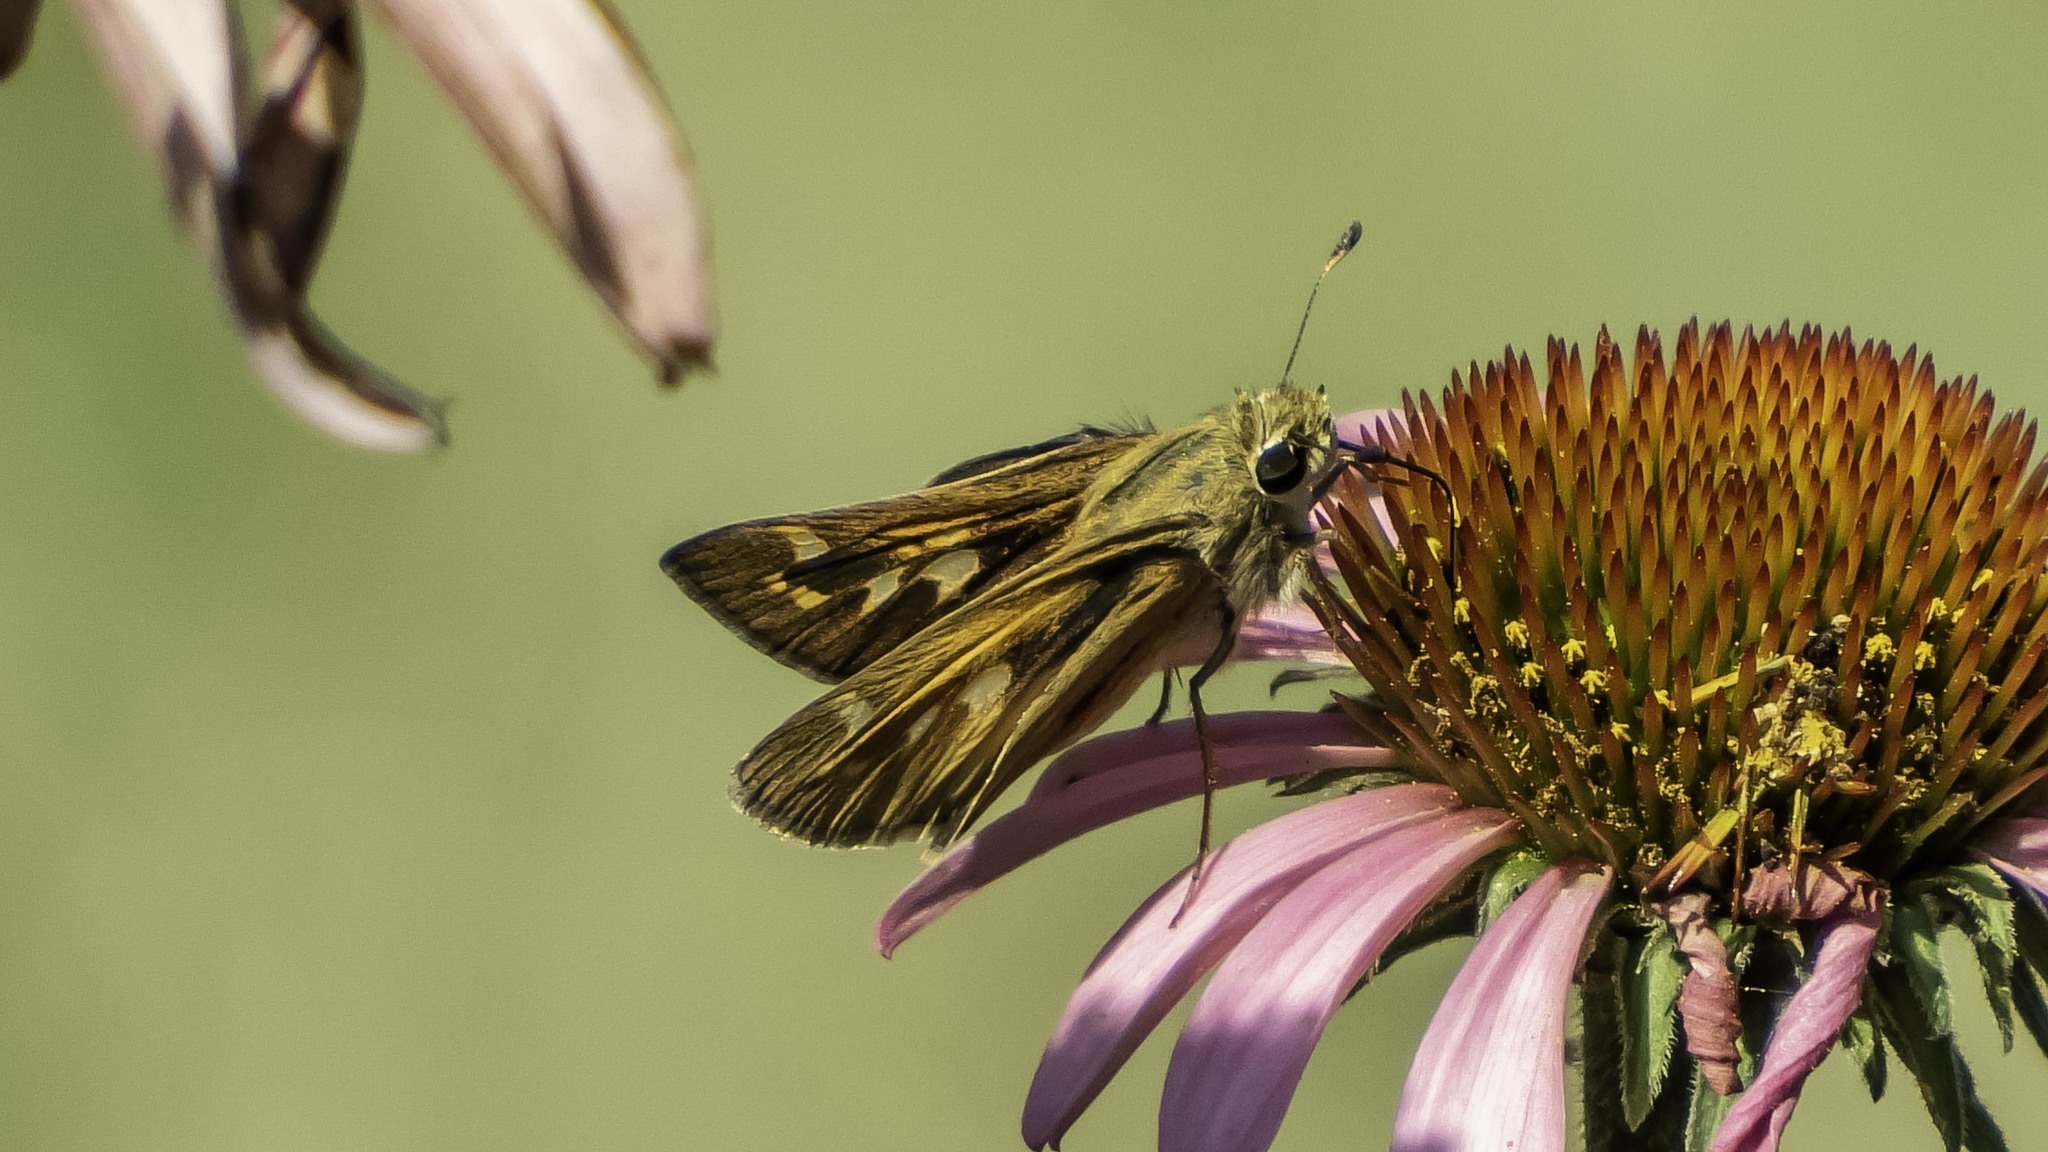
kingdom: Animalia
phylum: Arthropoda
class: Insecta
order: Lepidoptera
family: Hesperiidae
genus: Atalopedes
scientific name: Atalopedes
